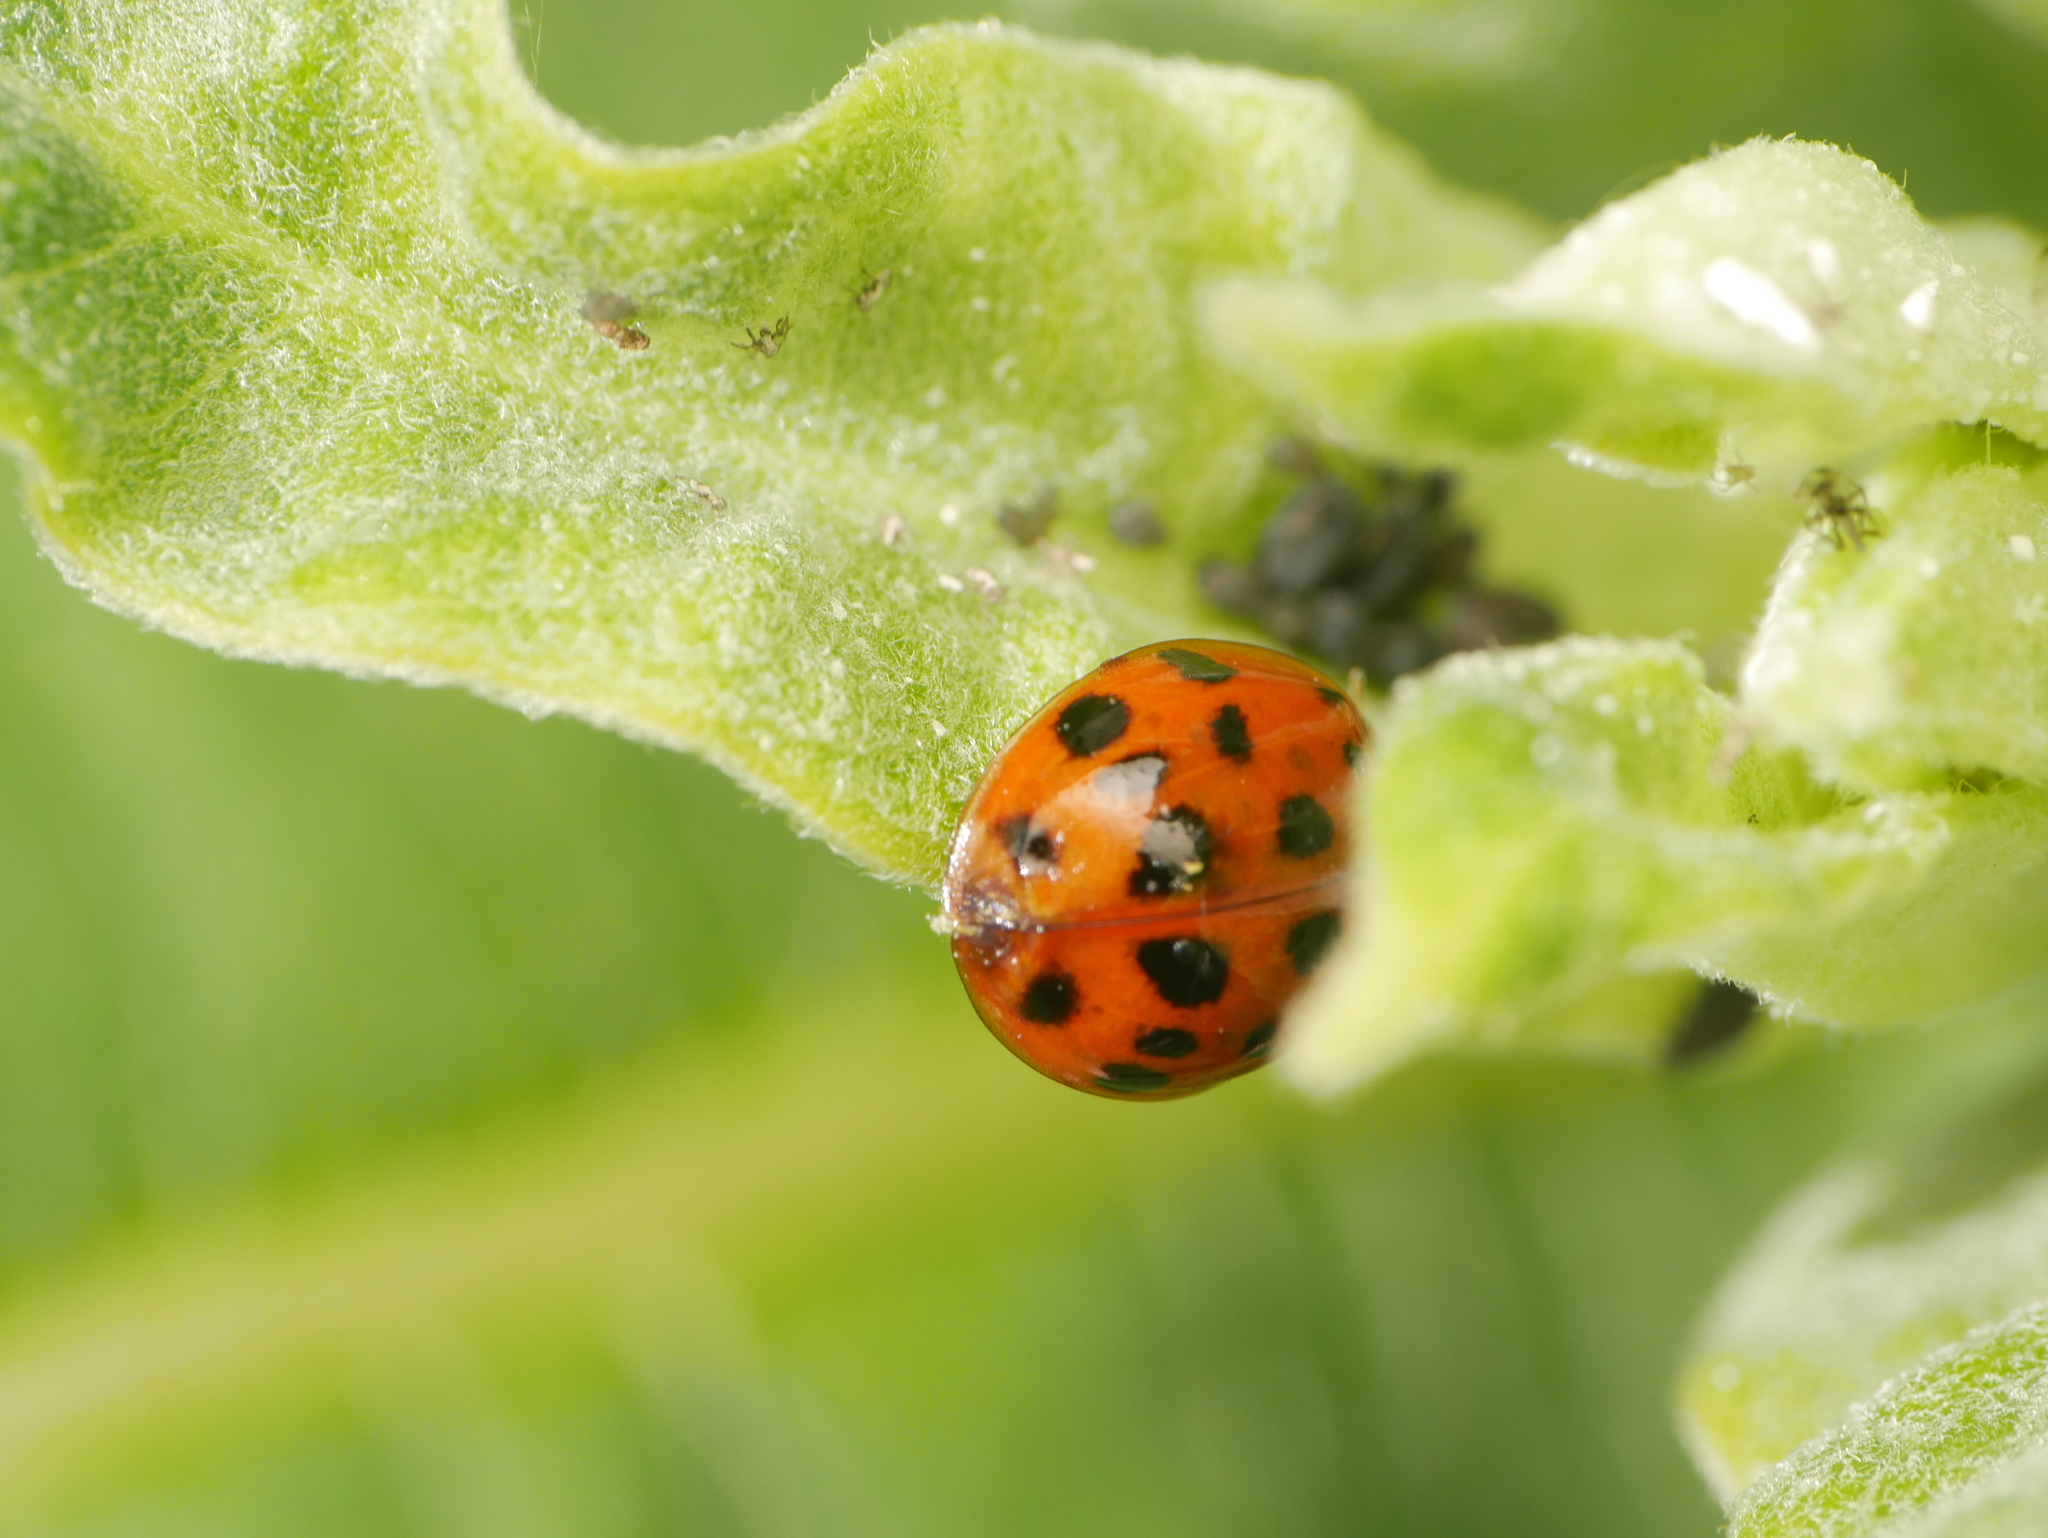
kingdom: Animalia
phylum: Arthropoda
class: Insecta
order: Coleoptera
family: Coccinellidae
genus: Harmonia
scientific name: Harmonia axyridis
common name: Harlequin ladybird
